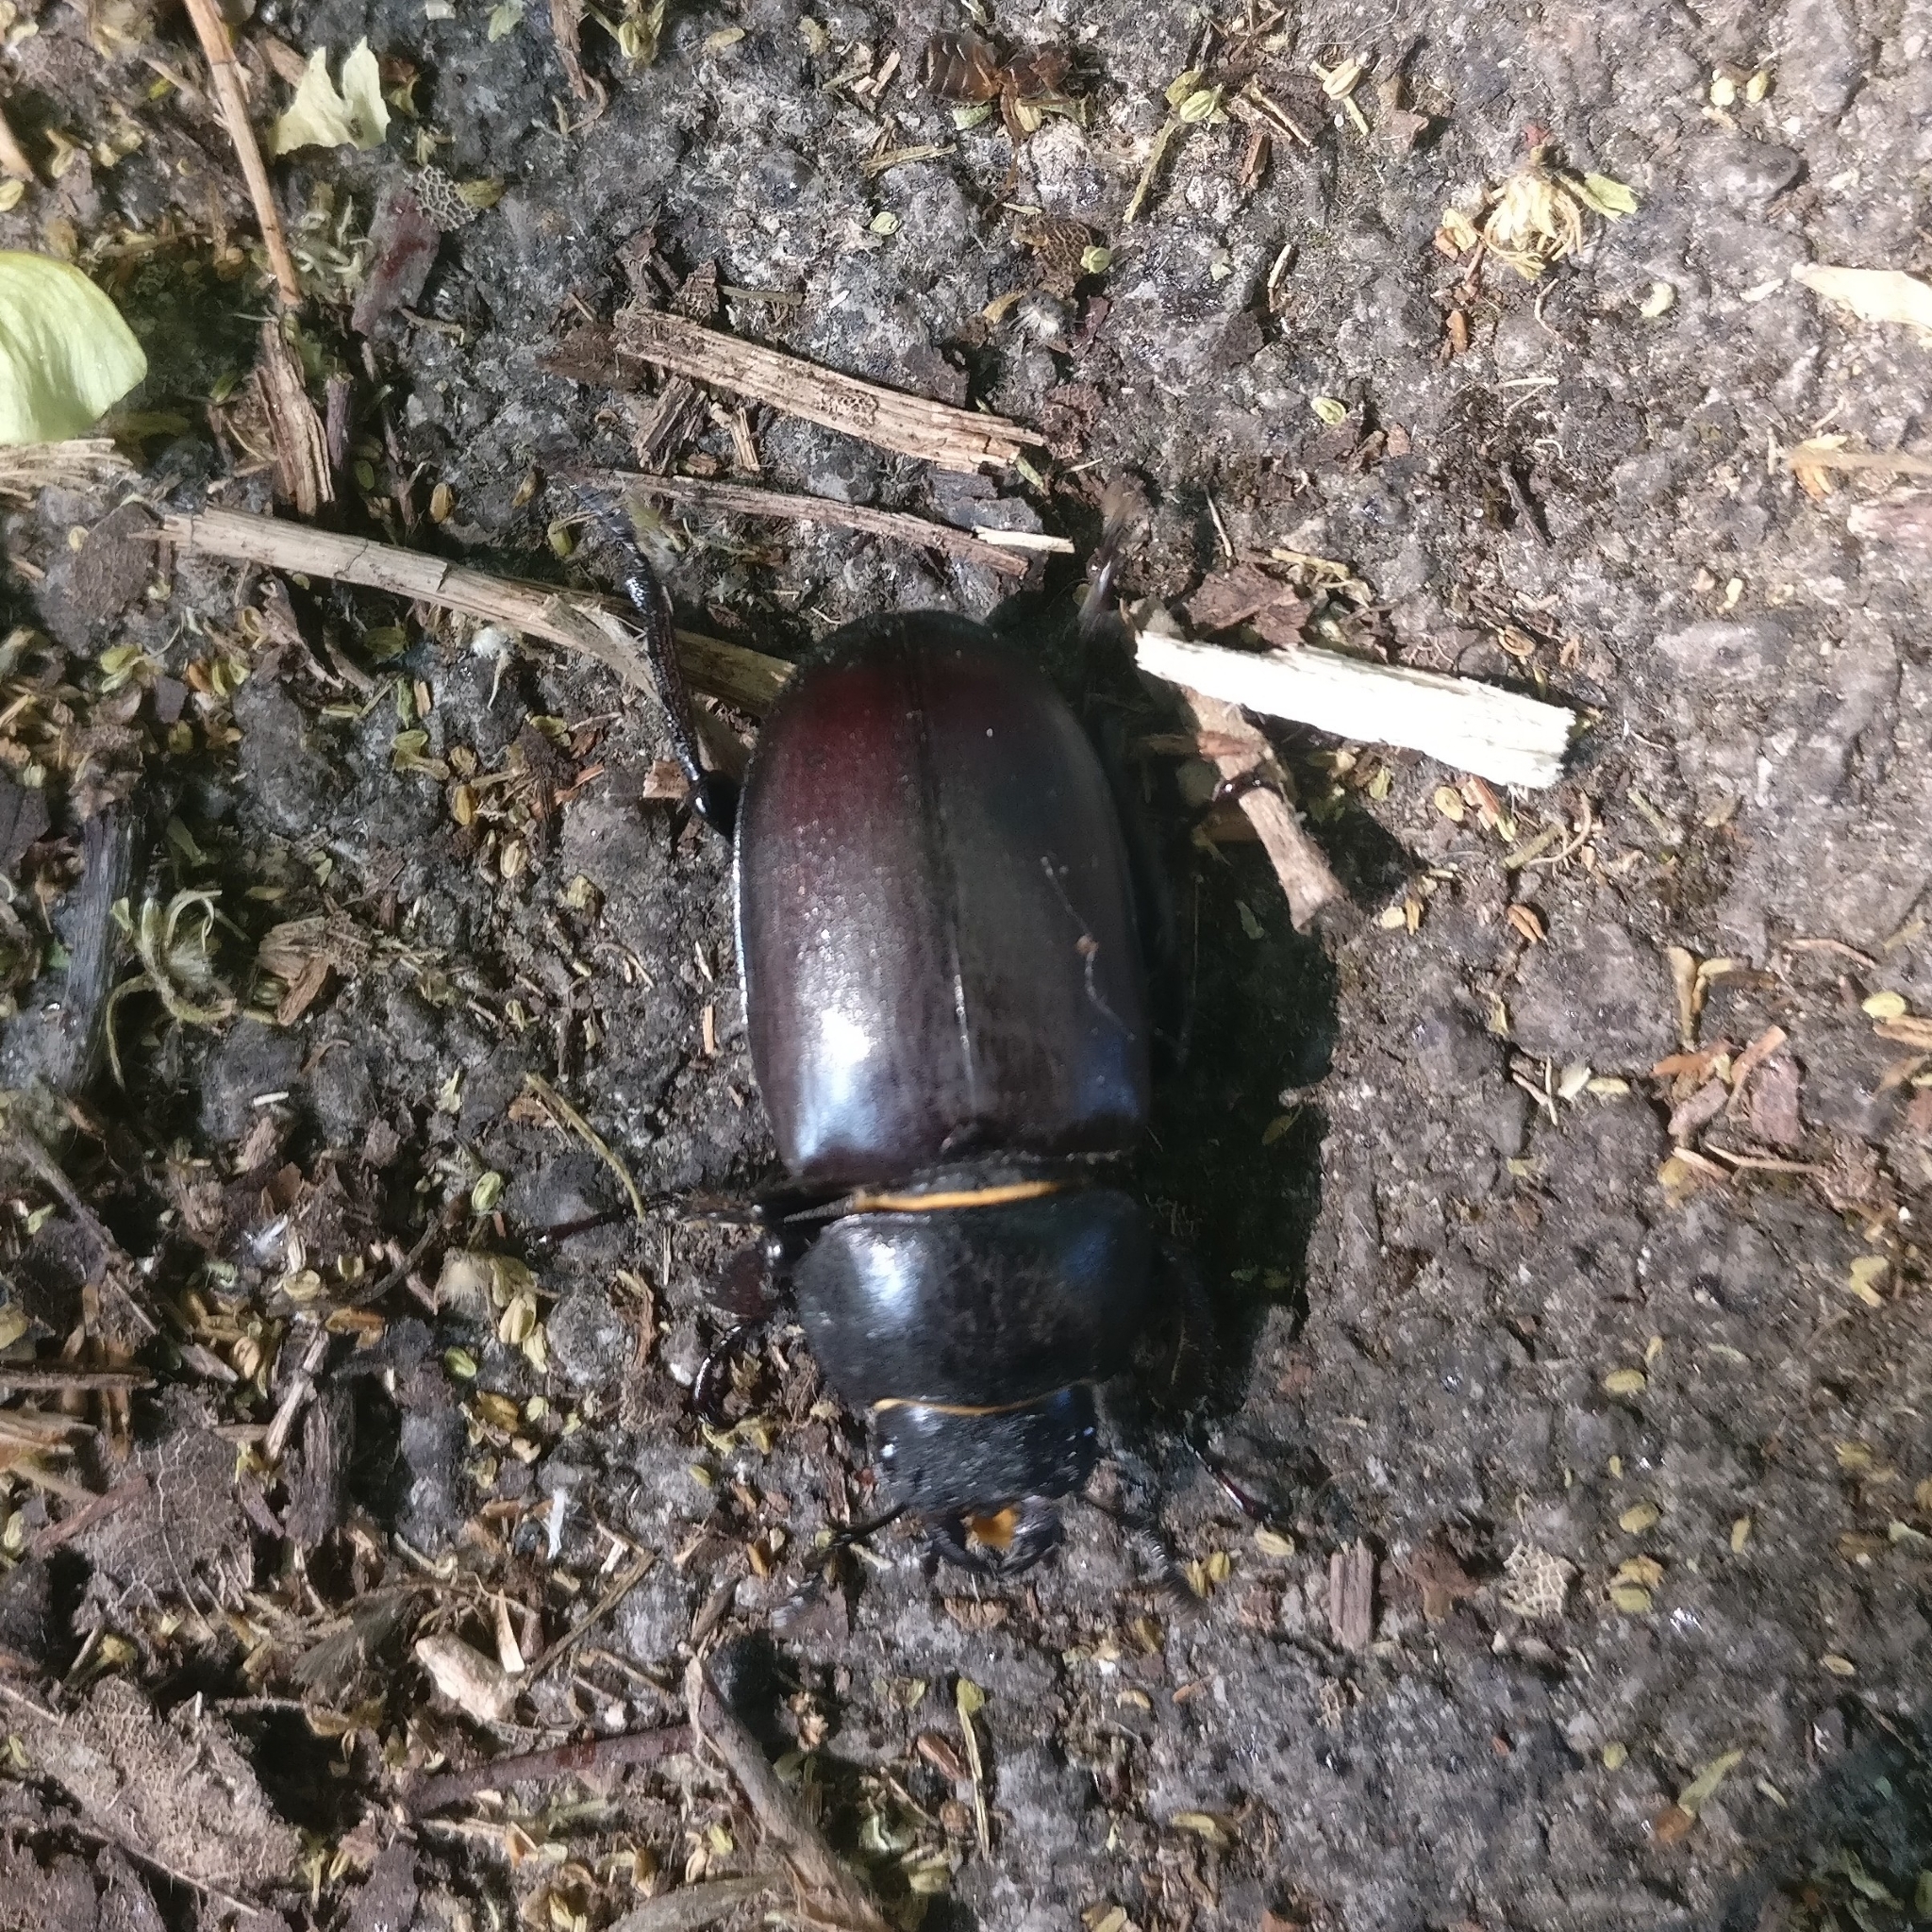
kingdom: Animalia
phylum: Arthropoda
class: Insecta
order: Coleoptera
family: Lucanidae
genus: Lucanus
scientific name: Lucanus cervus
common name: Stag beetle
